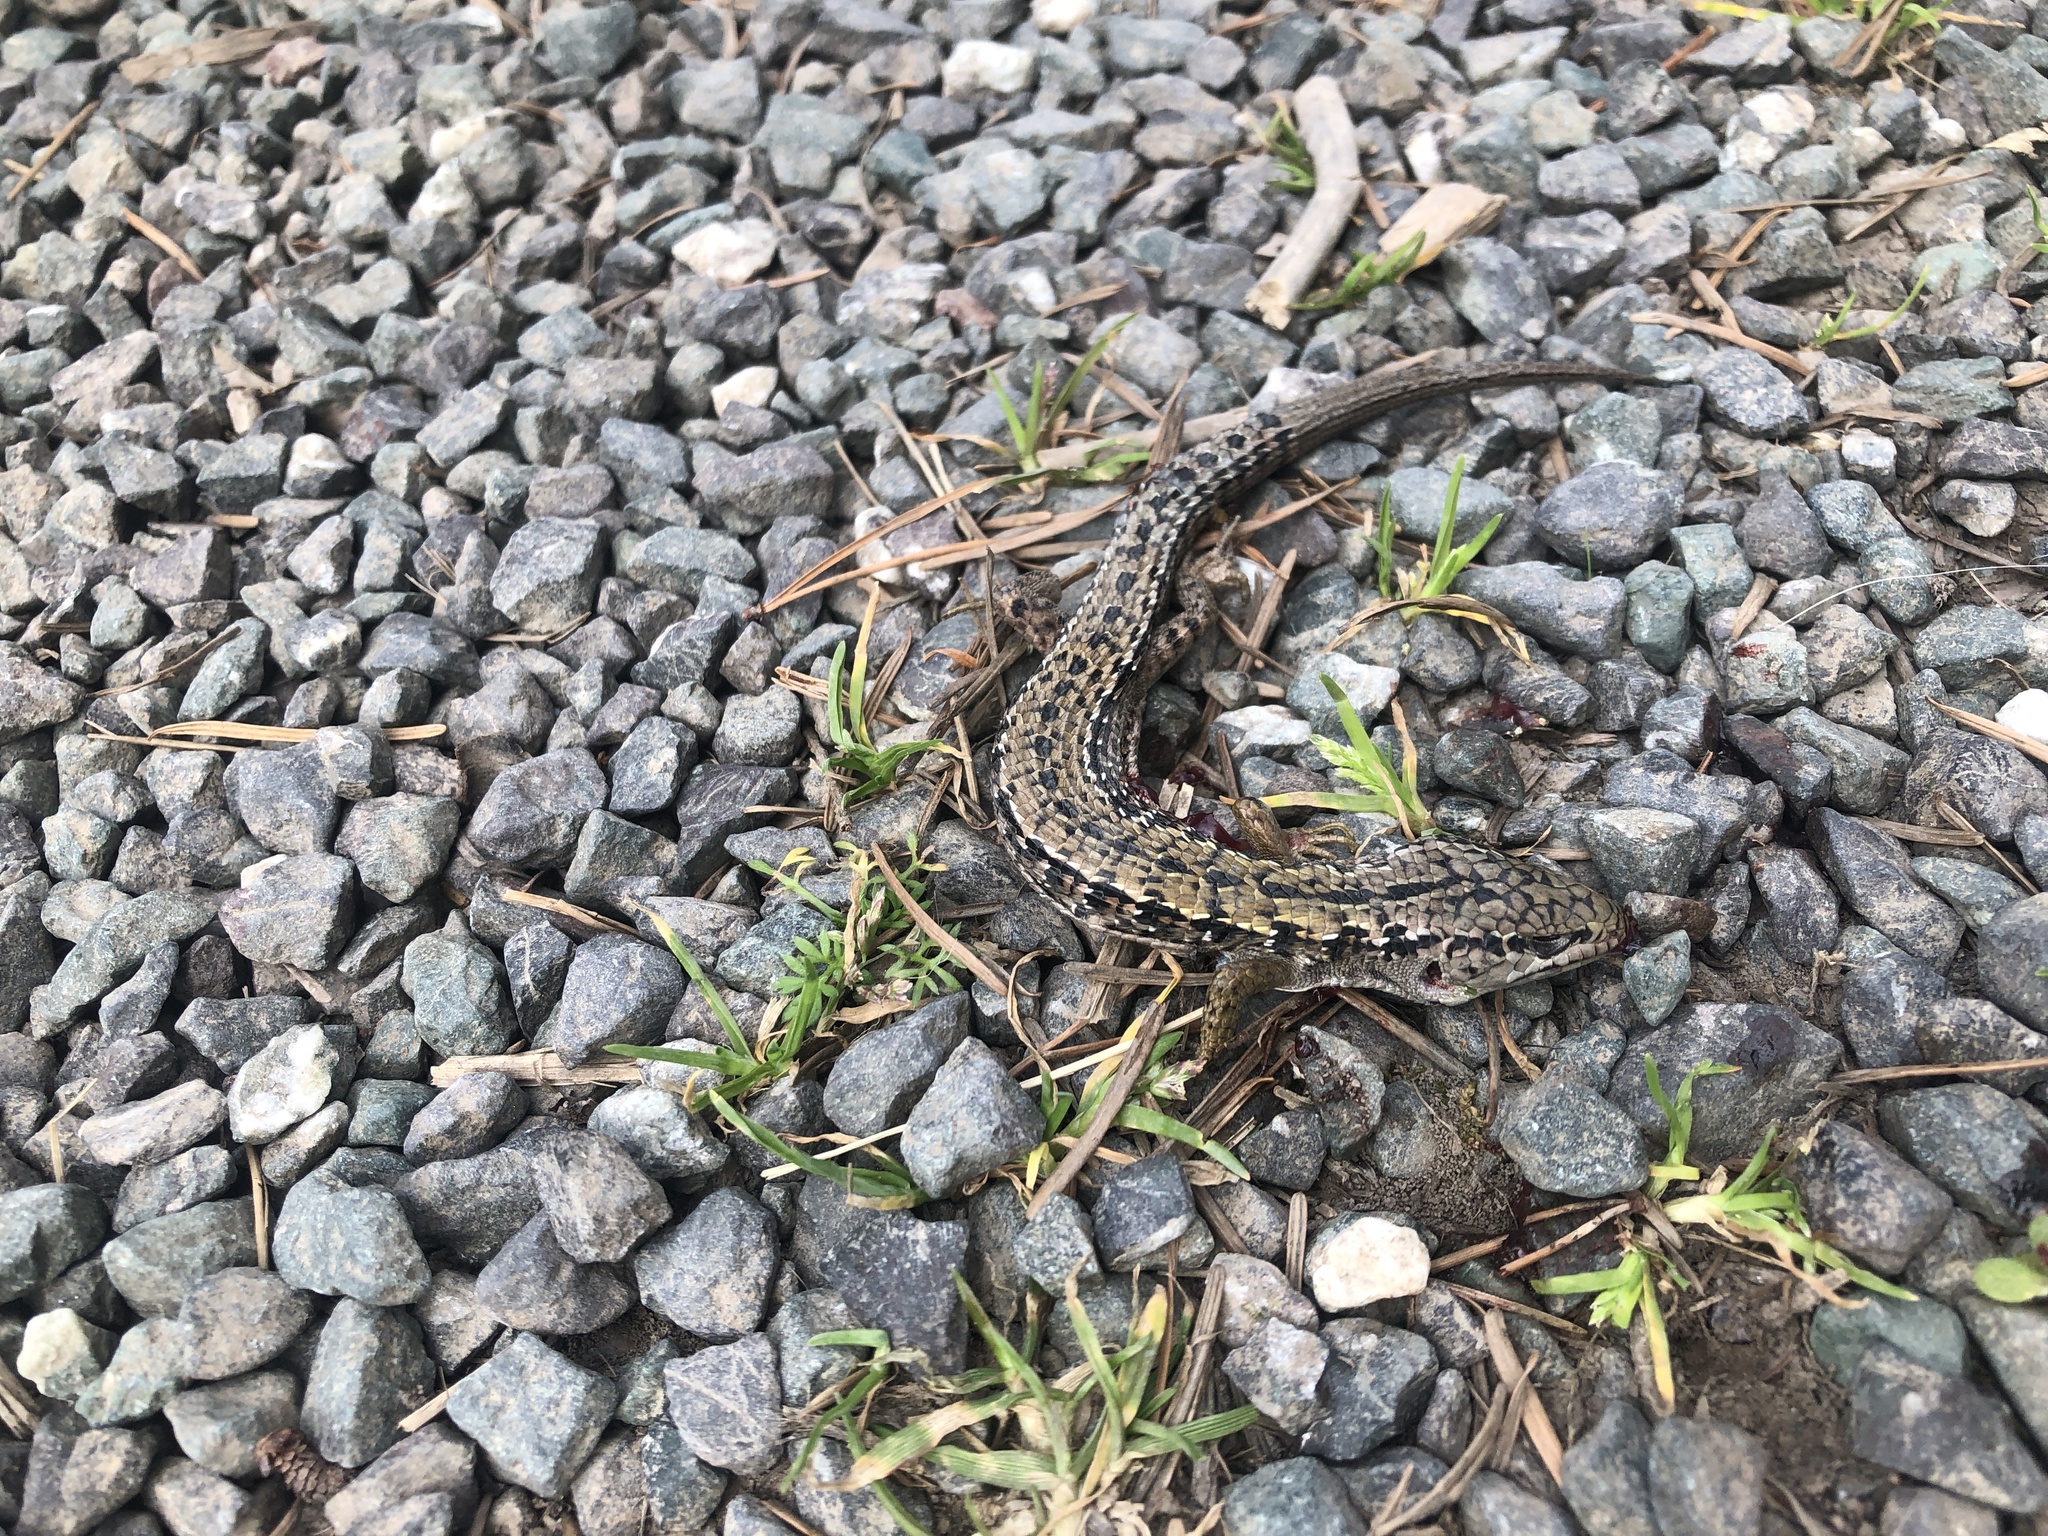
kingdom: Animalia
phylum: Chordata
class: Squamata
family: Anguidae
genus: Elgaria
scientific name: Elgaria coerulea
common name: Northern alligator lizard
